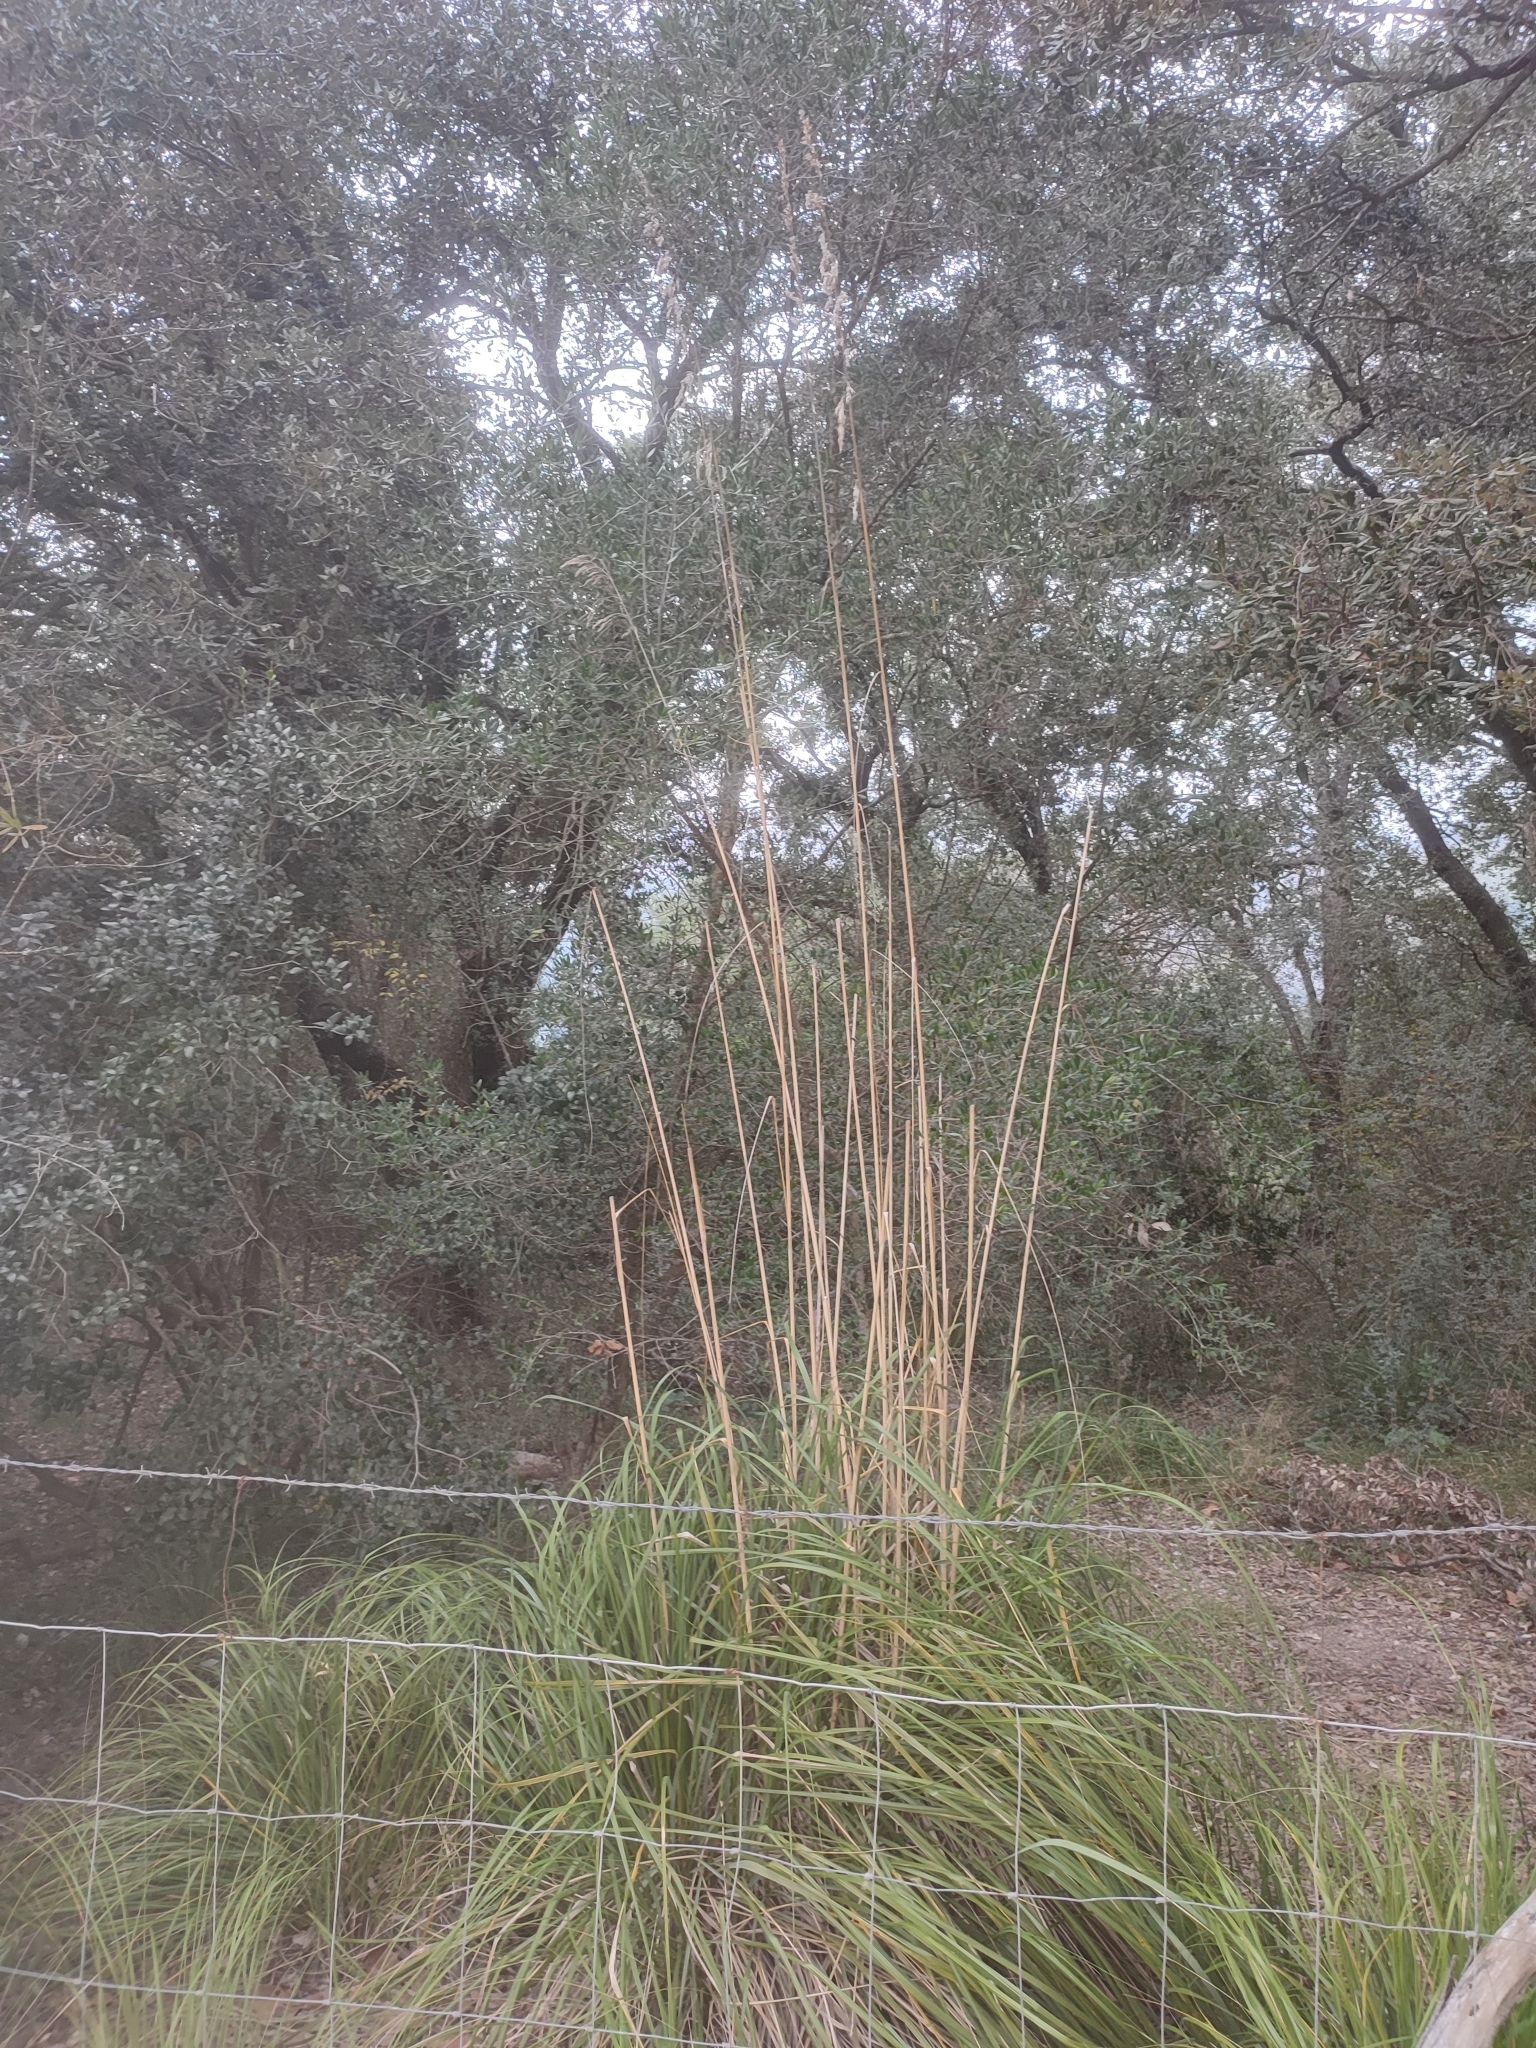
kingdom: Plantae
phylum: Tracheophyta
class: Liliopsida
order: Poales
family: Poaceae
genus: Ampelodesmos
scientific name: Ampelodesmos mauritanicus
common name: Mauritanian grass
